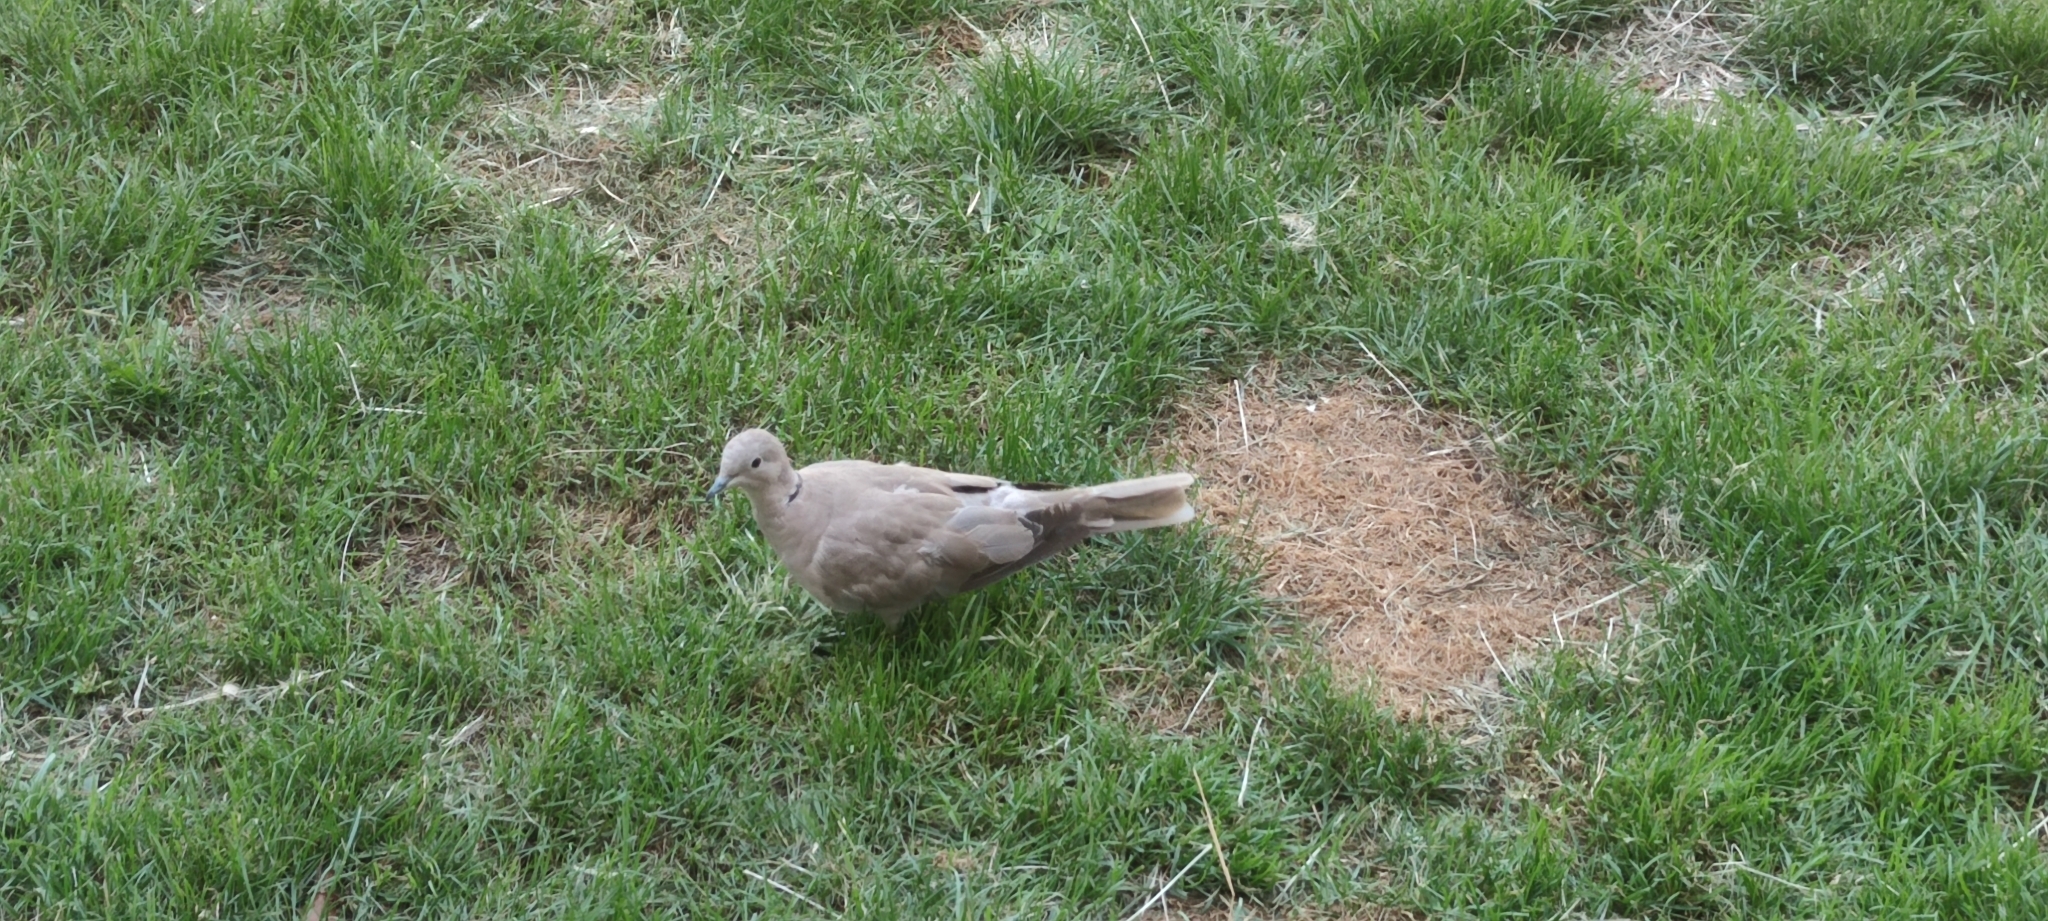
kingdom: Animalia
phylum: Chordata
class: Aves
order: Columbiformes
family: Columbidae
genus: Streptopelia
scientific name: Streptopelia decaocto
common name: Eurasian collared dove
